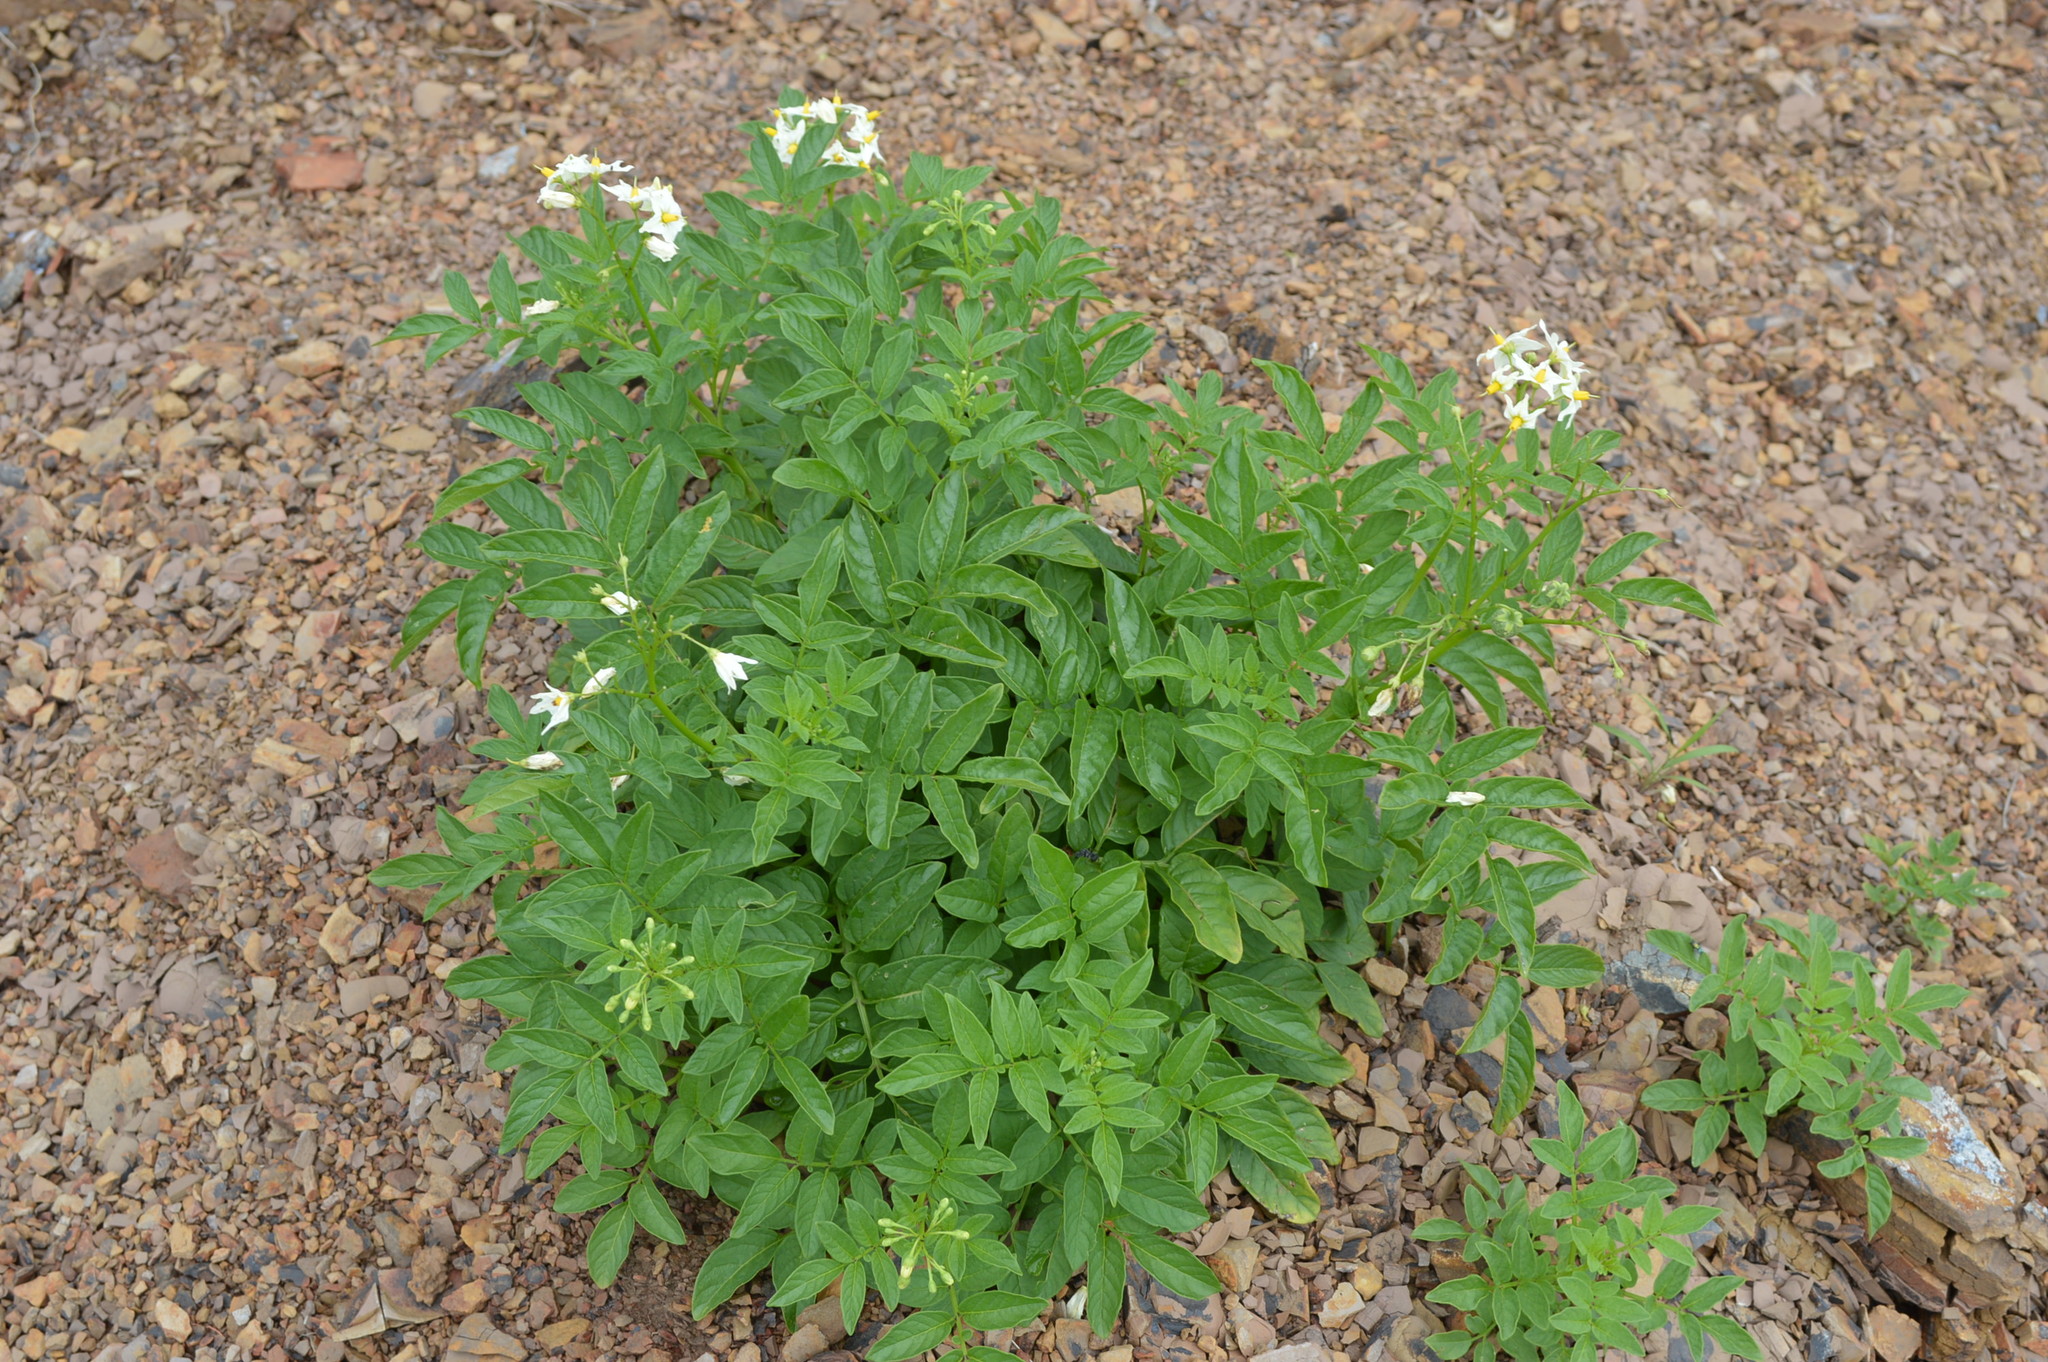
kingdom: Plantae
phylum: Tracheophyta
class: Magnoliopsida
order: Solanales
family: Solanaceae
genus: Solanum
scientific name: Solanum chacoense
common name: Chaco potato
